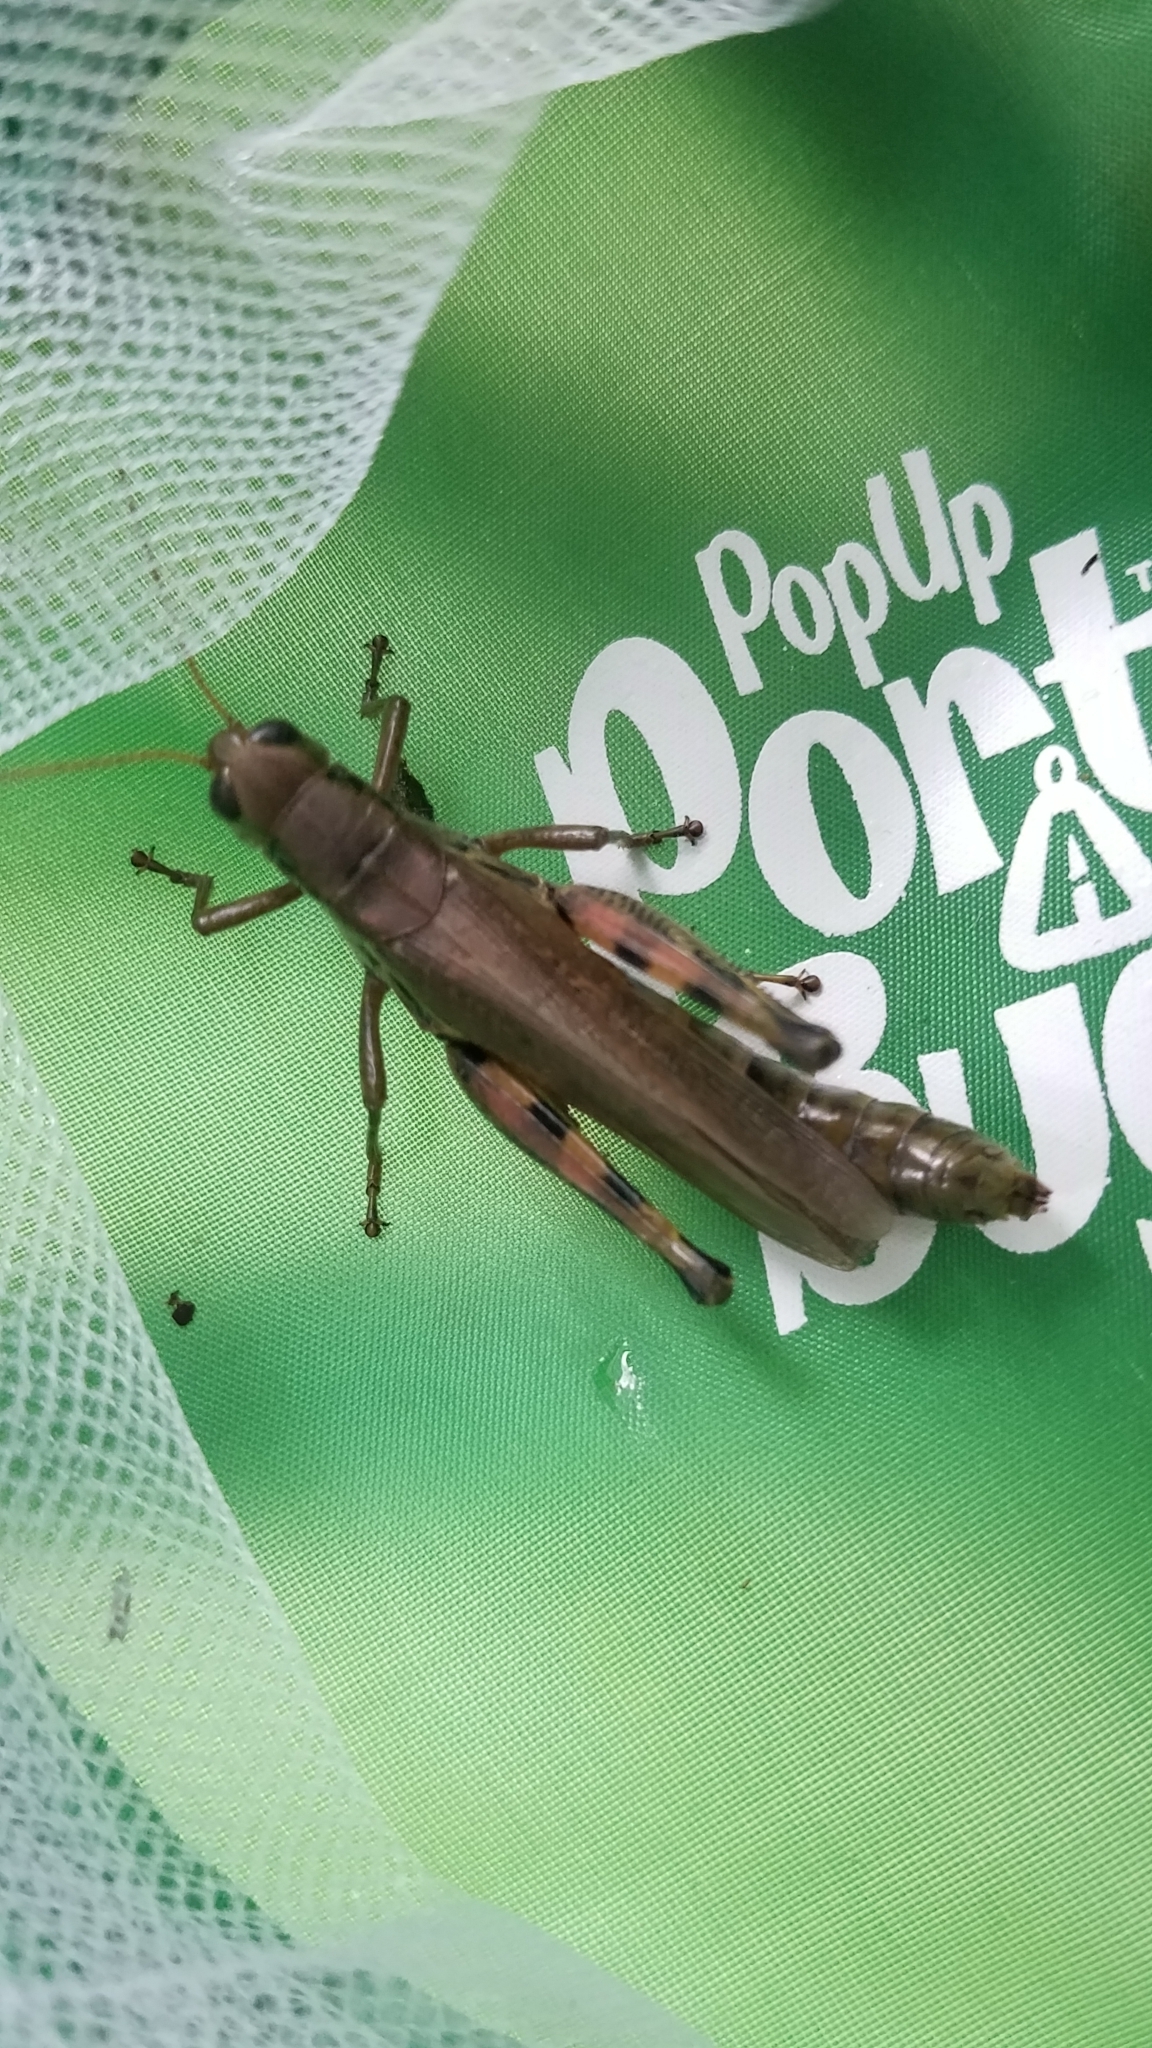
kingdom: Animalia
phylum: Arthropoda
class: Insecta
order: Orthoptera
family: Acrididae
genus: Melanoplus
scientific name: Melanoplus differentialis
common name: Differential grasshopper
